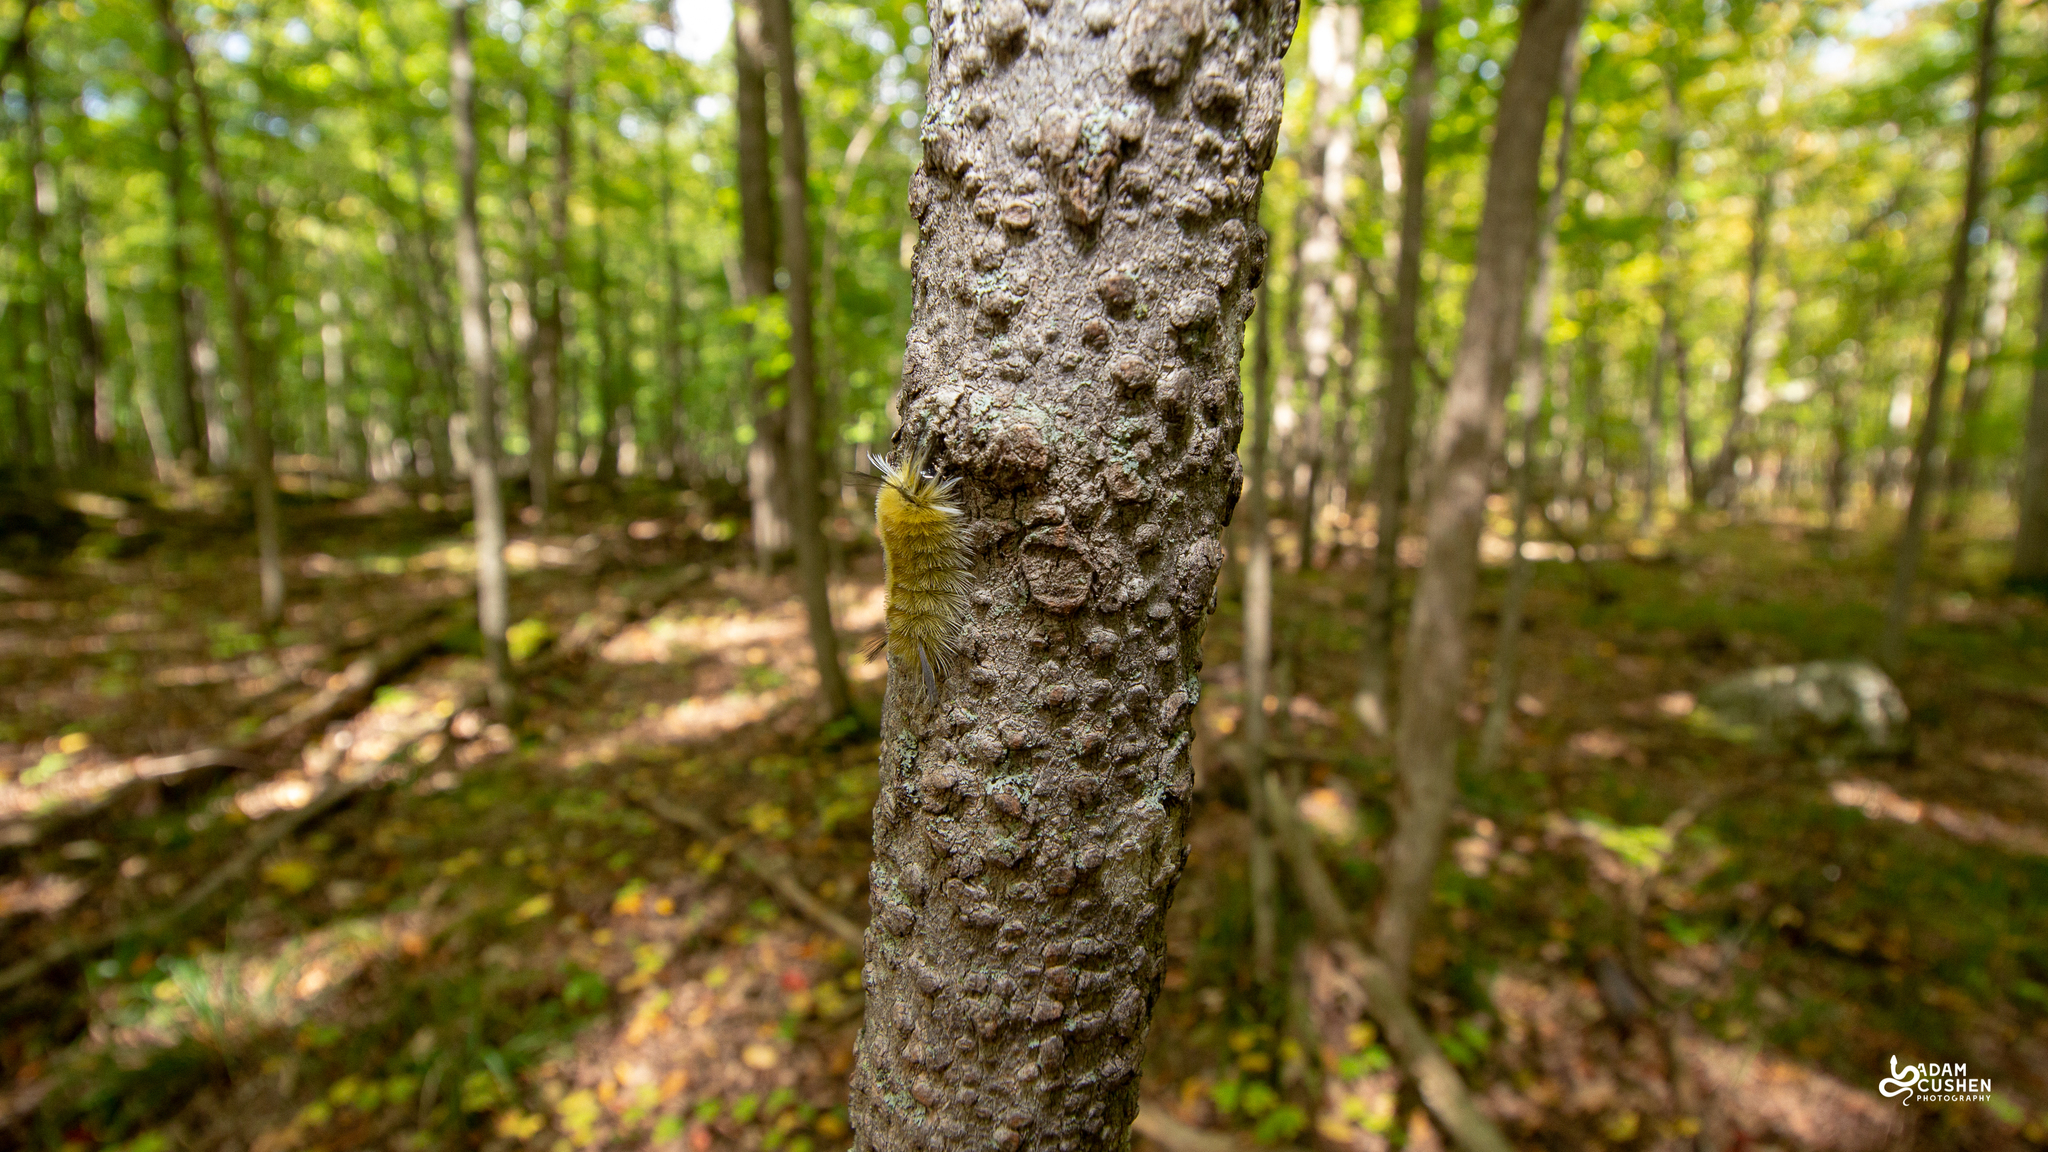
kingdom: Animalia
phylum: Arthropoda
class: Insecta
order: Lepidoptera
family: Erebidae
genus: Halysidota
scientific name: Halysidota tessellaris
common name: Banded tussock moth
